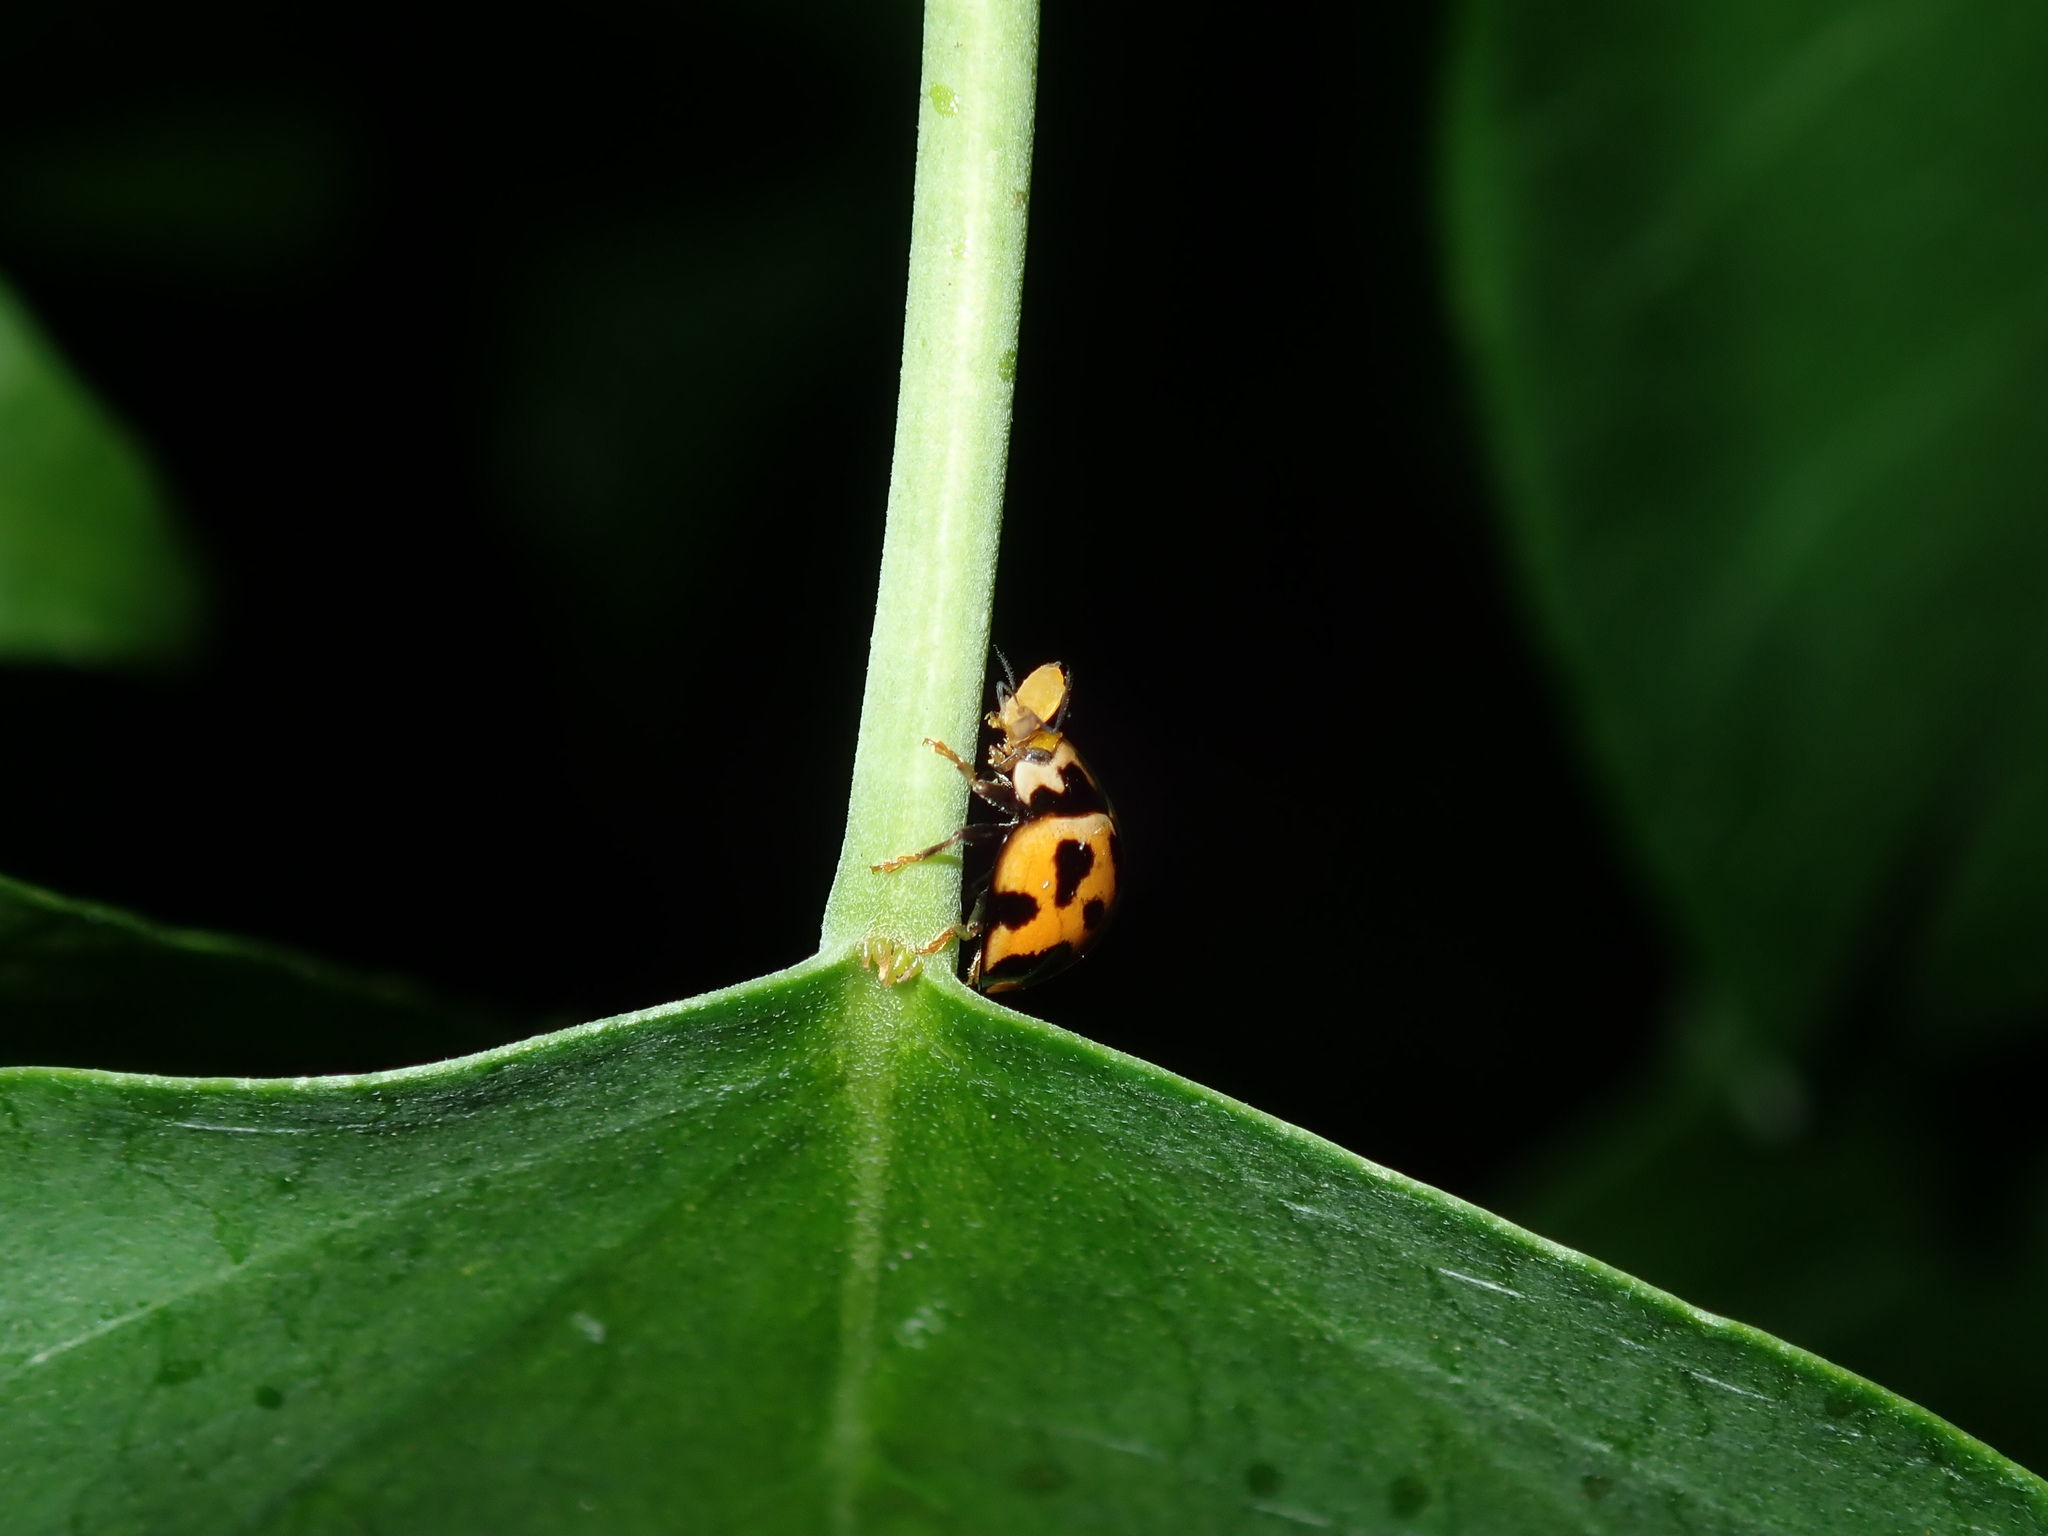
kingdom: Animalia
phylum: Arthropoda
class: Insecta
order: Coleoptera
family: Coccinellidae
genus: Coelophora
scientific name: Coelophora inaequalis
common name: Common australian lady beetle
